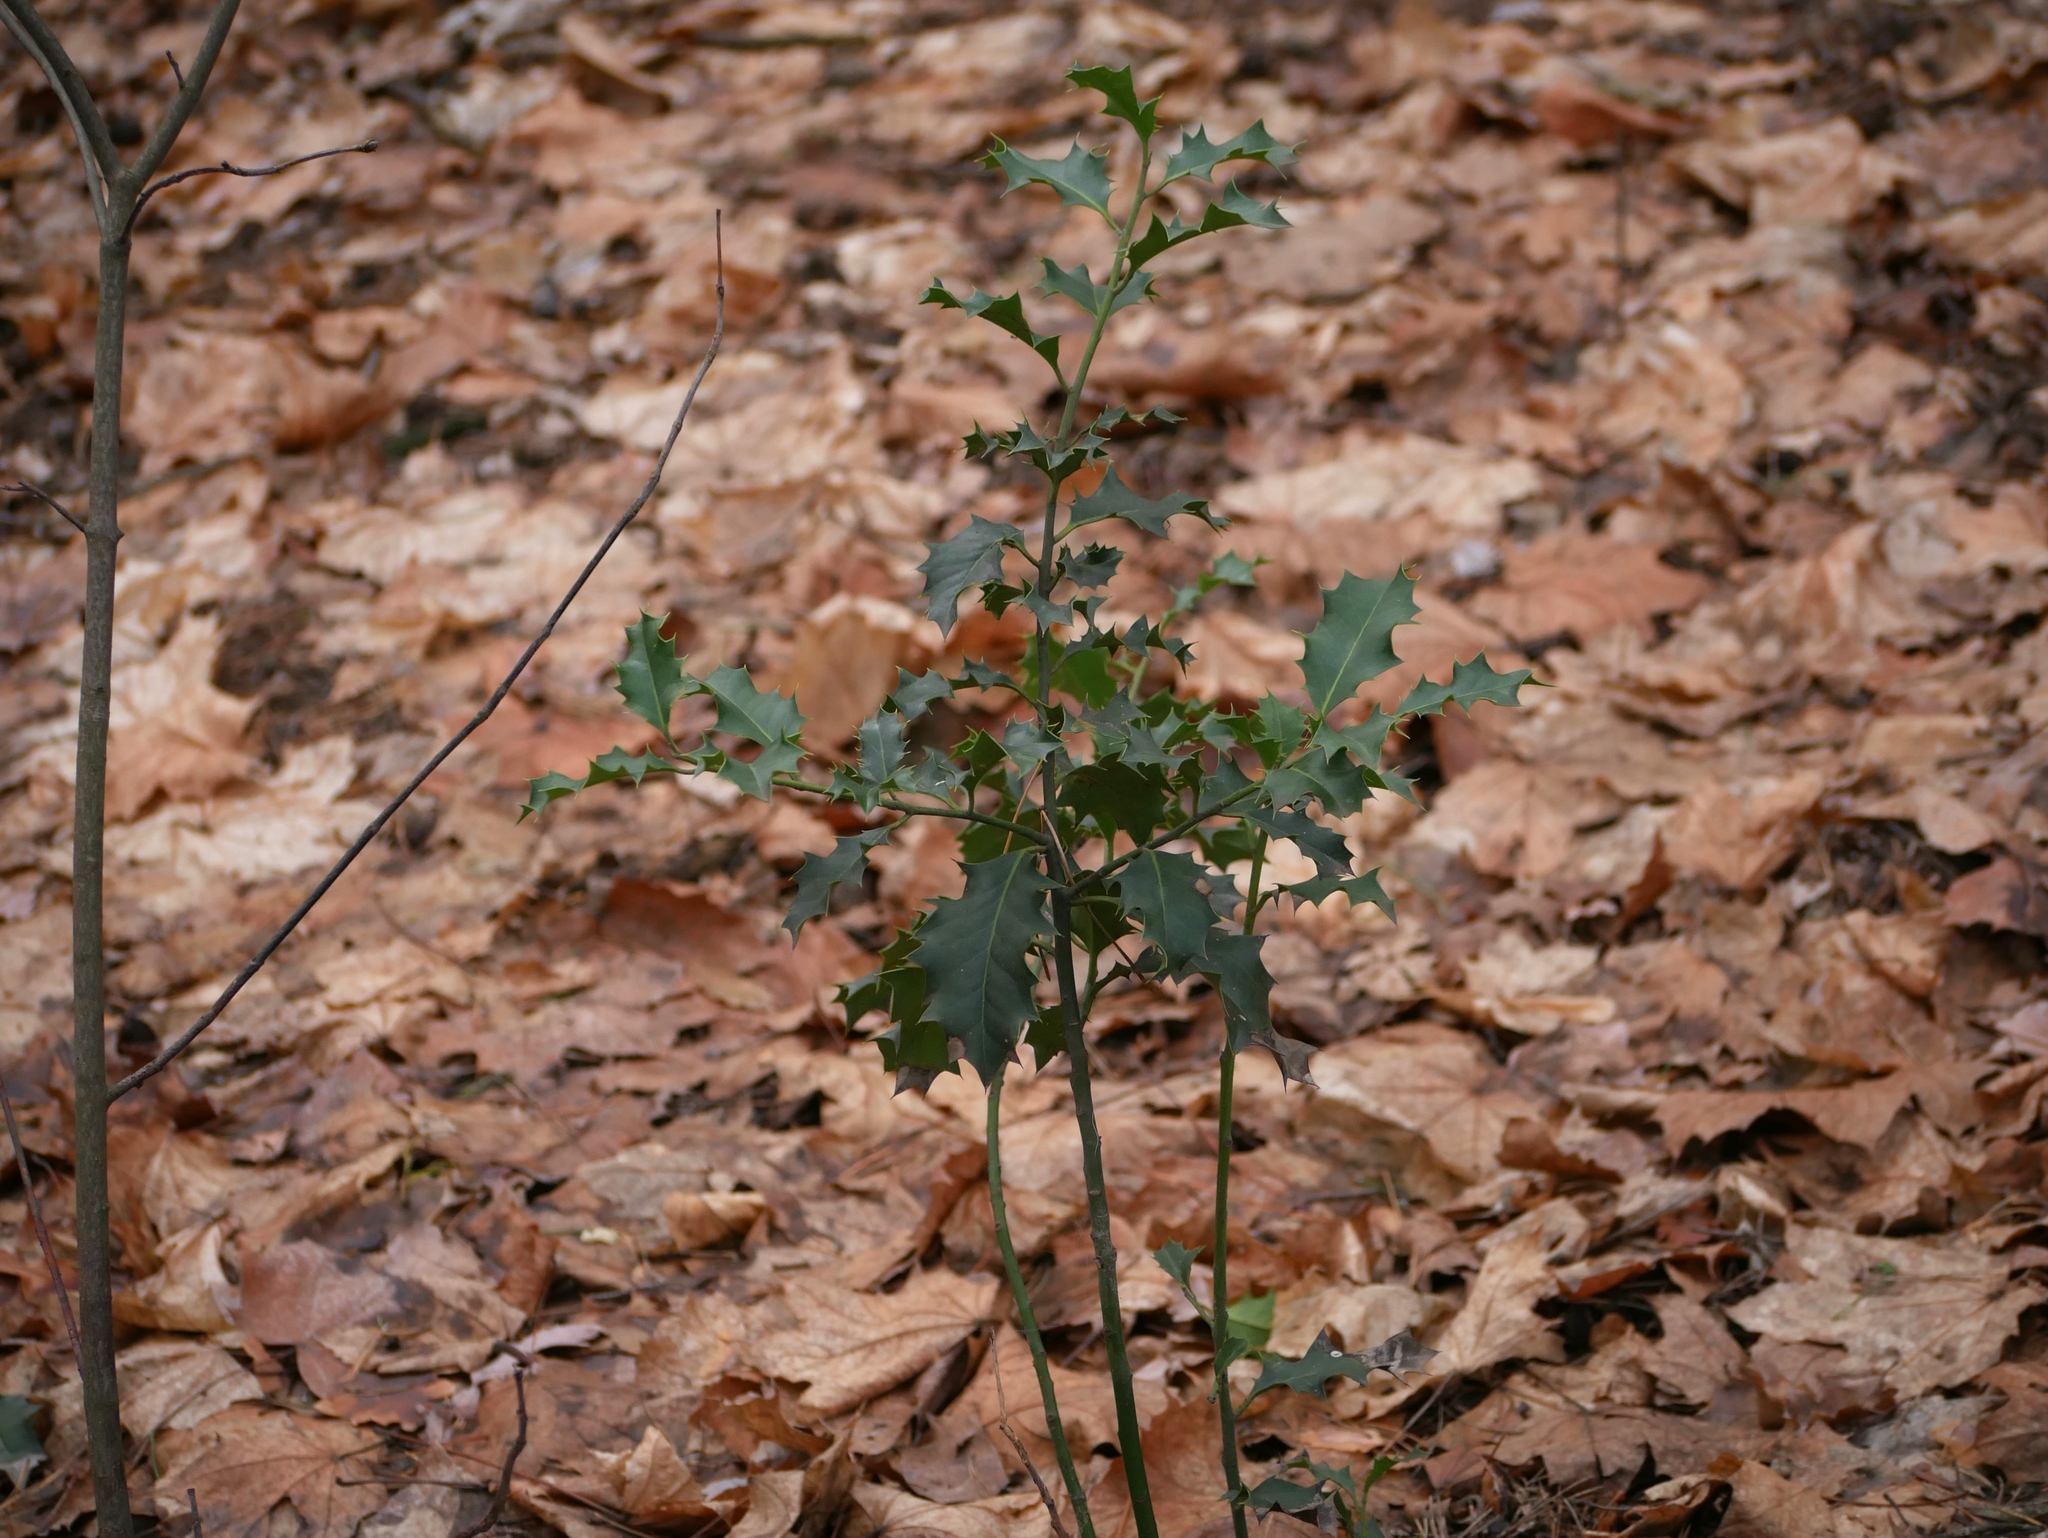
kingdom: Plantae
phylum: Tracheophyta
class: Magnoliopsida
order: Aquifoliales
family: Aquifoliaceae
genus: Ilex
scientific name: Ilex aquifolium
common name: English holly
